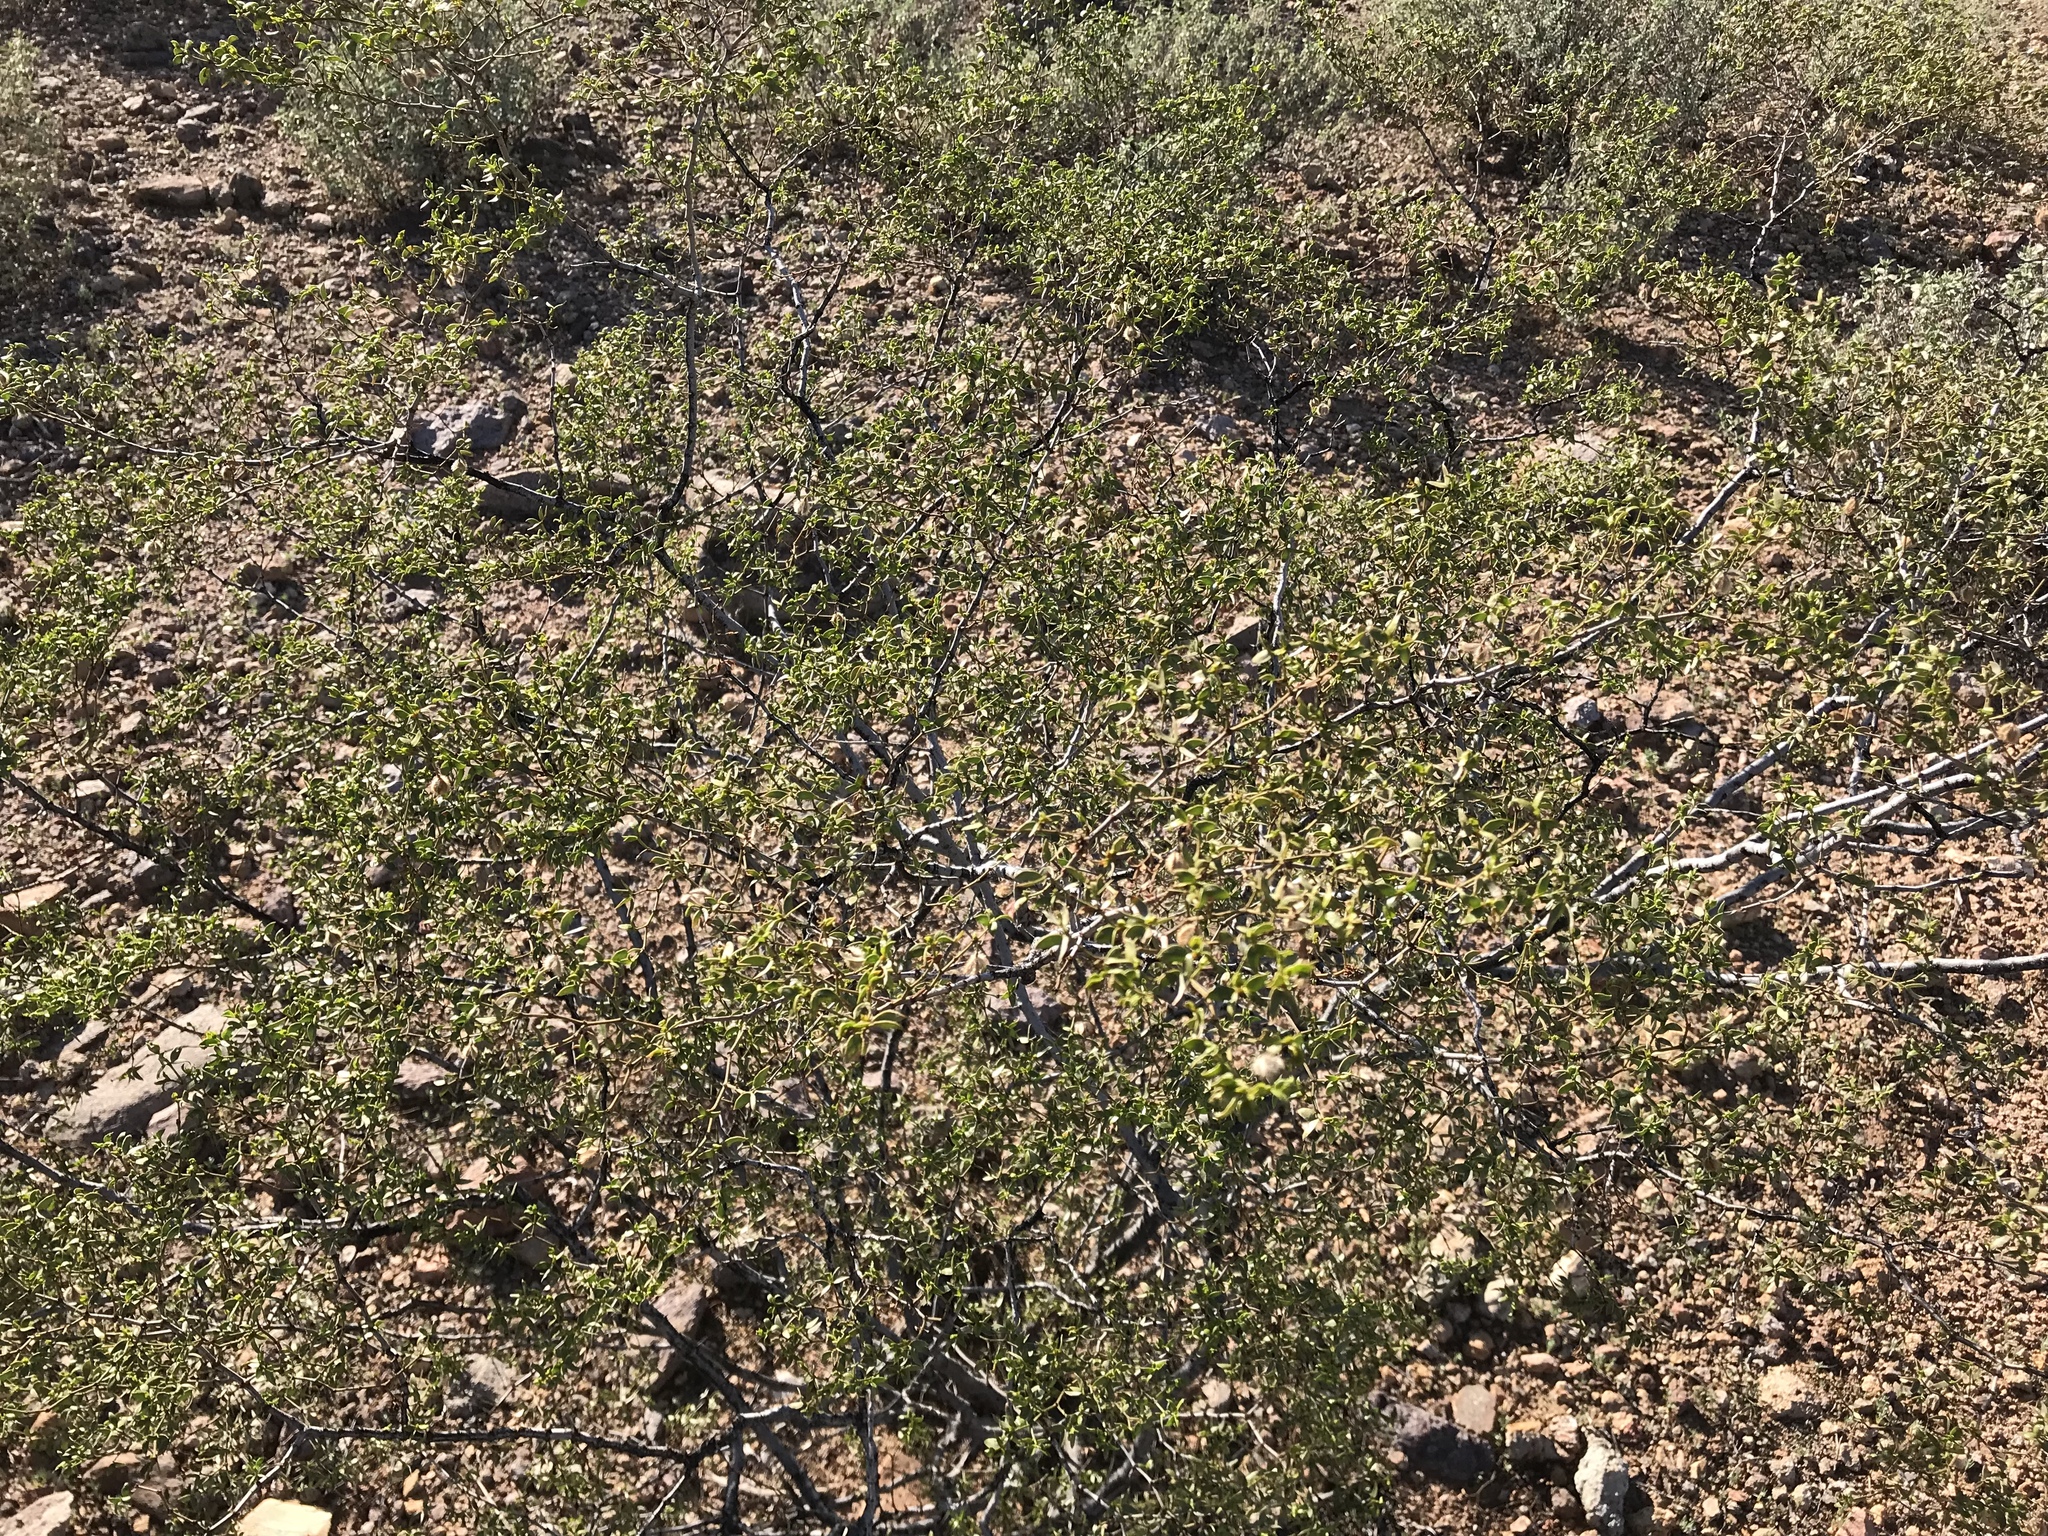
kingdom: Plantae
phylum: Tracheophyta
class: Magnoliopsida
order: Zygophyllales
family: Zygophyllaceae
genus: Larrea
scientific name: Larrea tridentata
